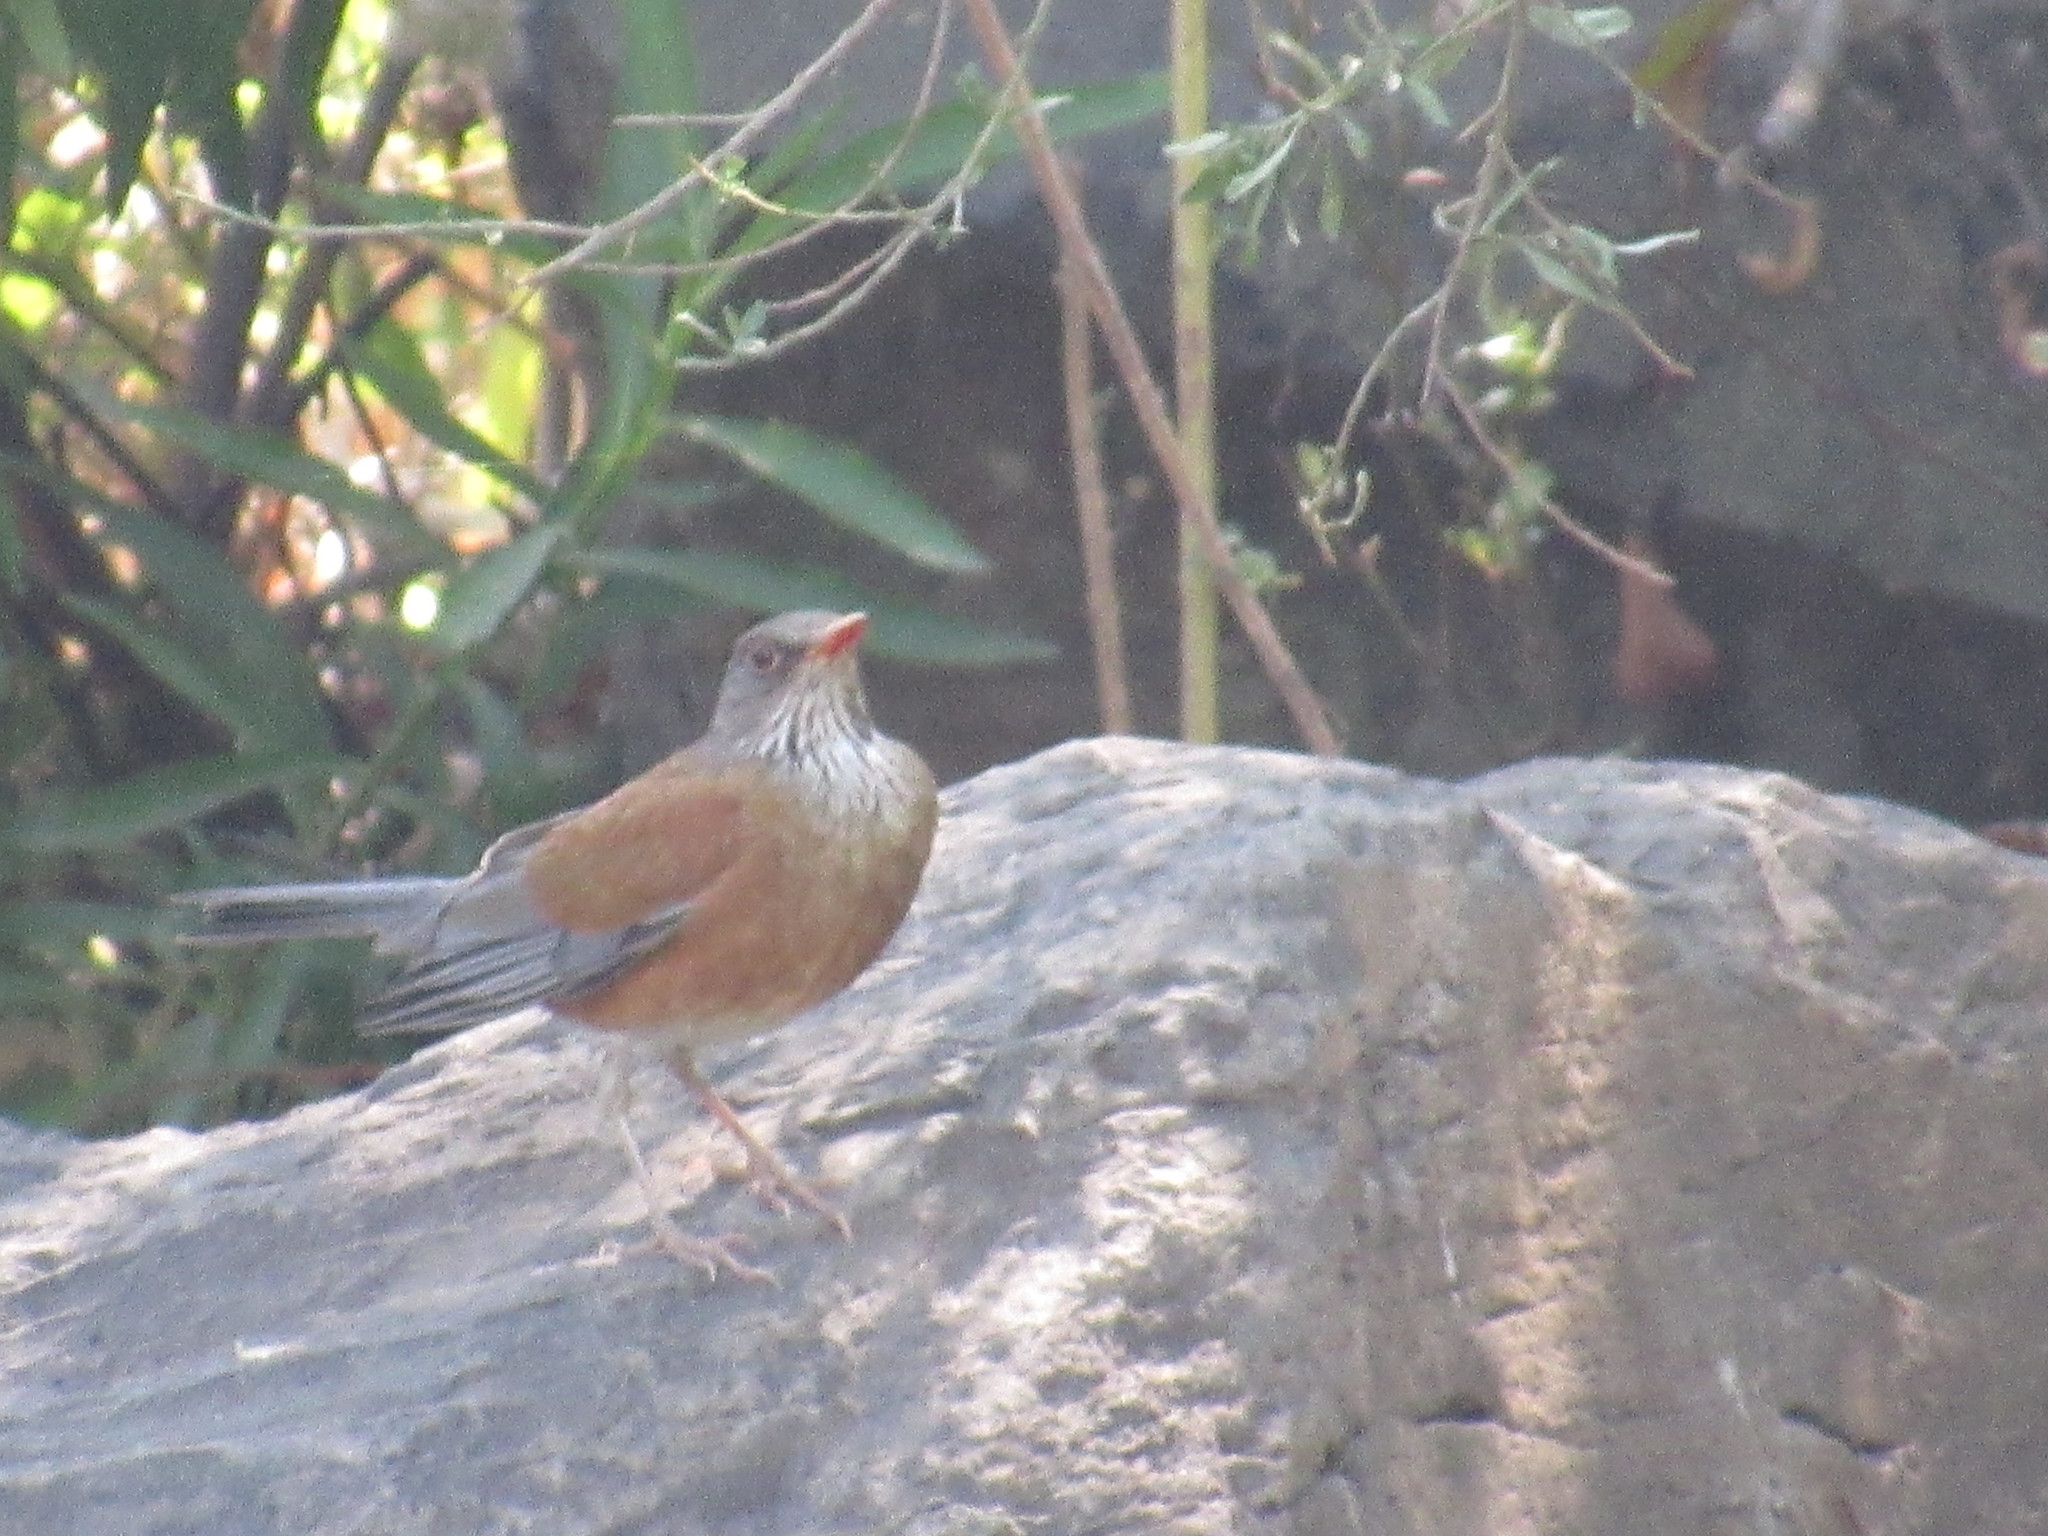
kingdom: Animalia
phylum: Chordata
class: Aves
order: Passeriformes
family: Turdidae
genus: Turdus
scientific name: Turdus rufopalliatus
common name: Rufous-backed robin
